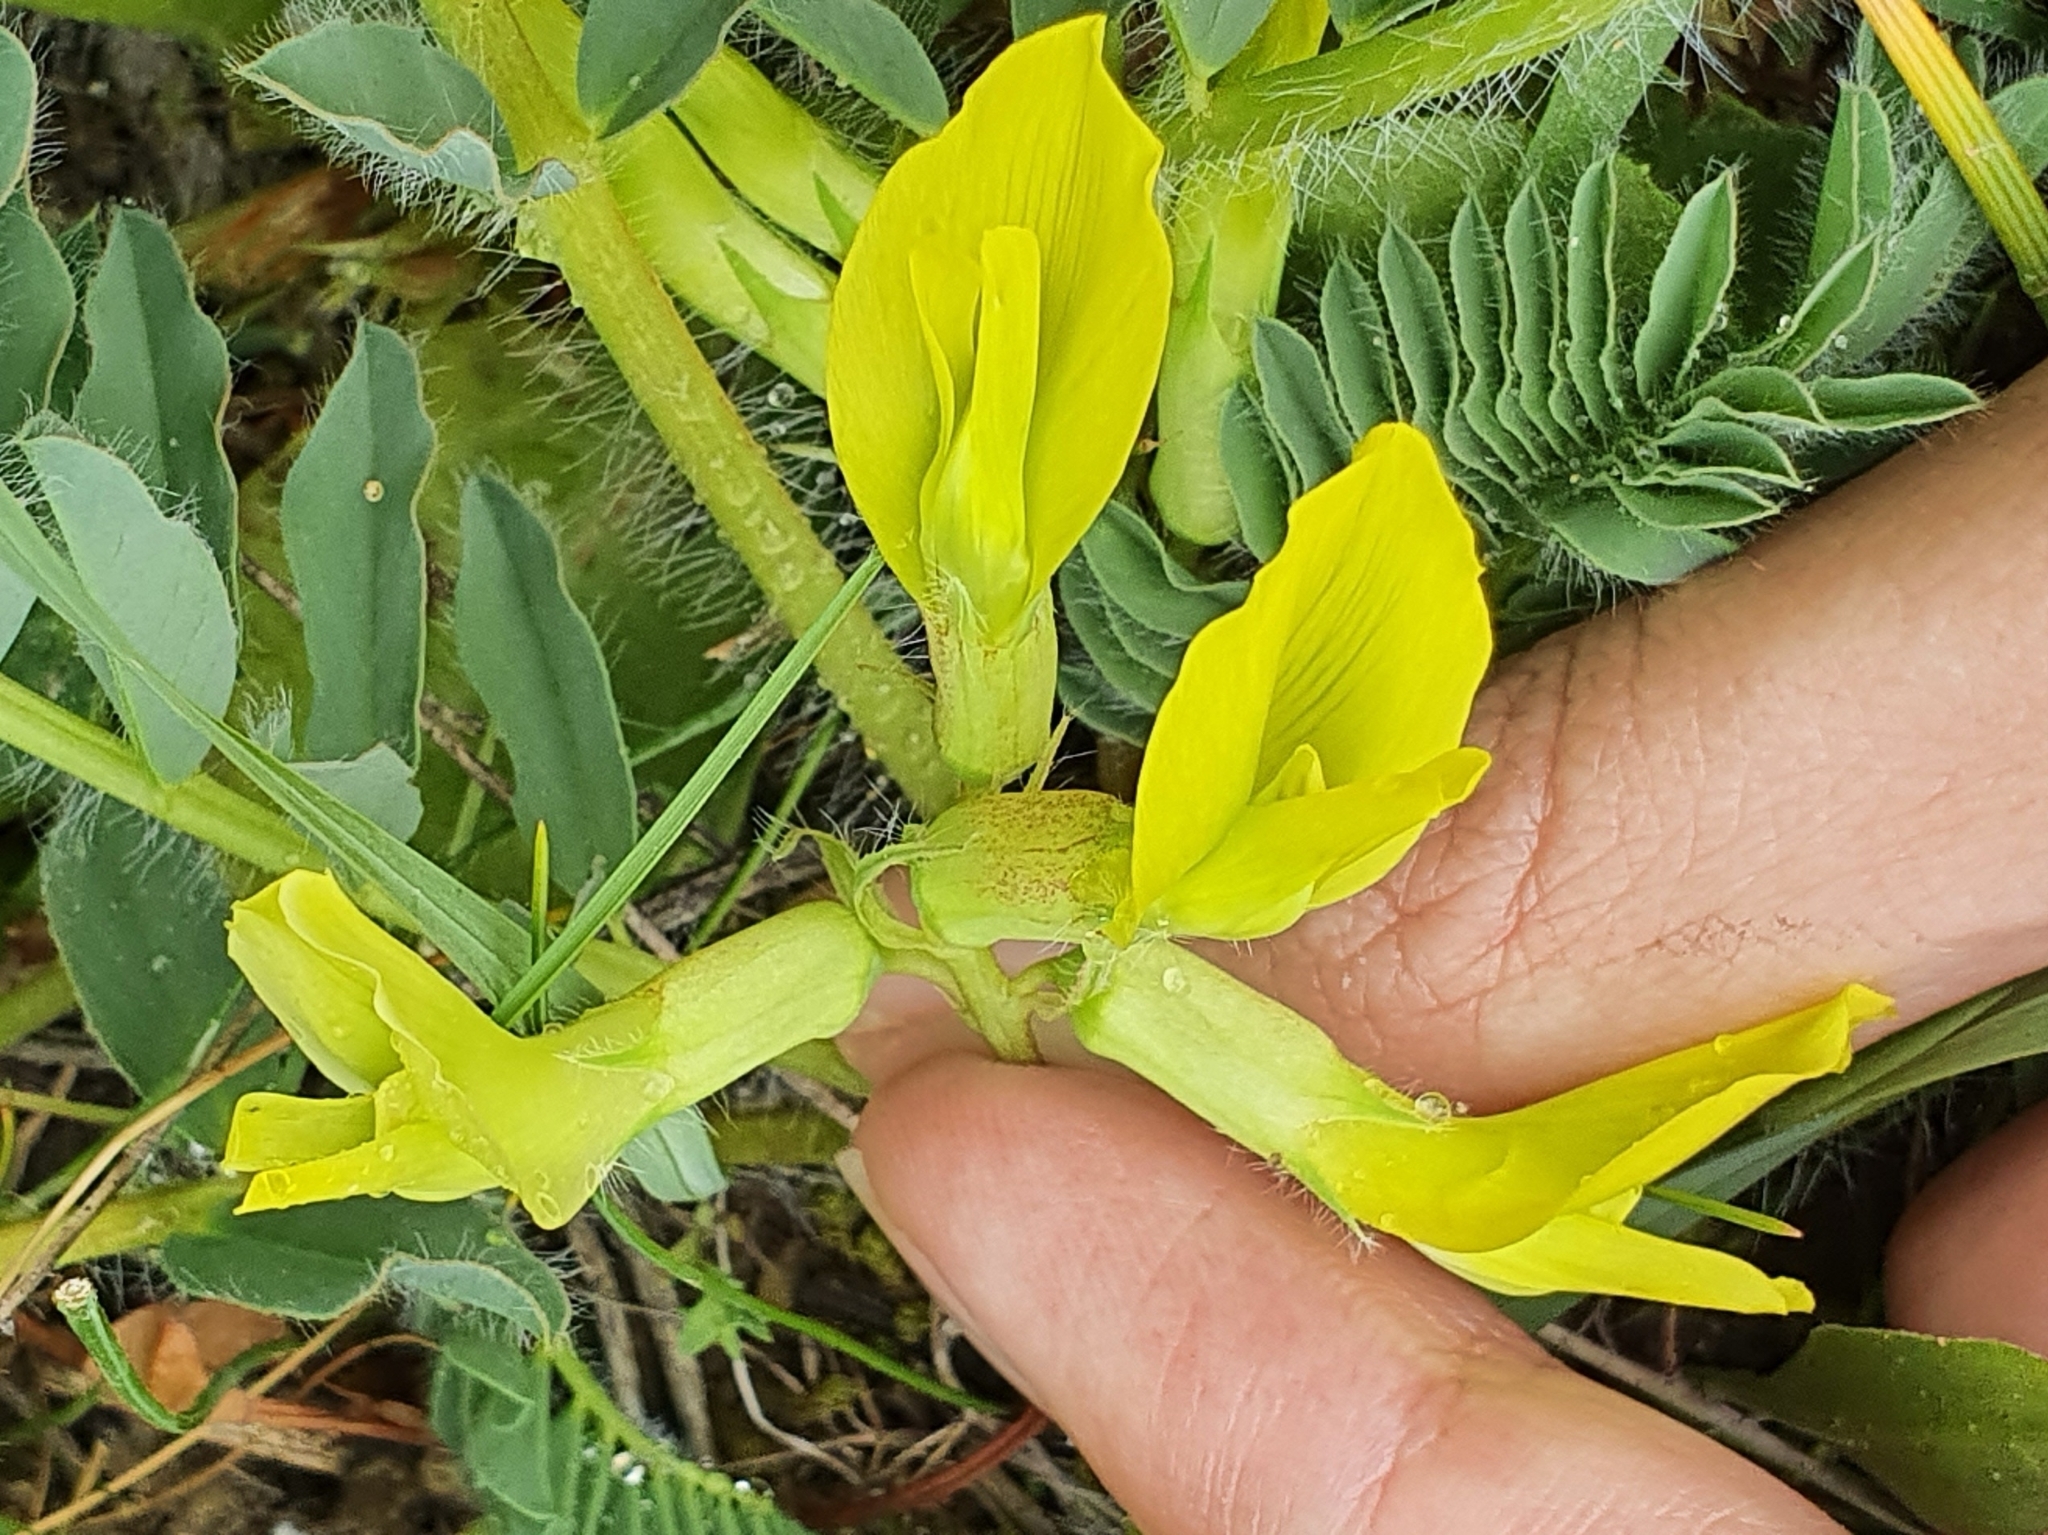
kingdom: Plantae
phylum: Tracheophyta
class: Magnoliopsida
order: Fabales
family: Fabaceae
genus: Astragalus
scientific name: Astragalus boreoafricanus
